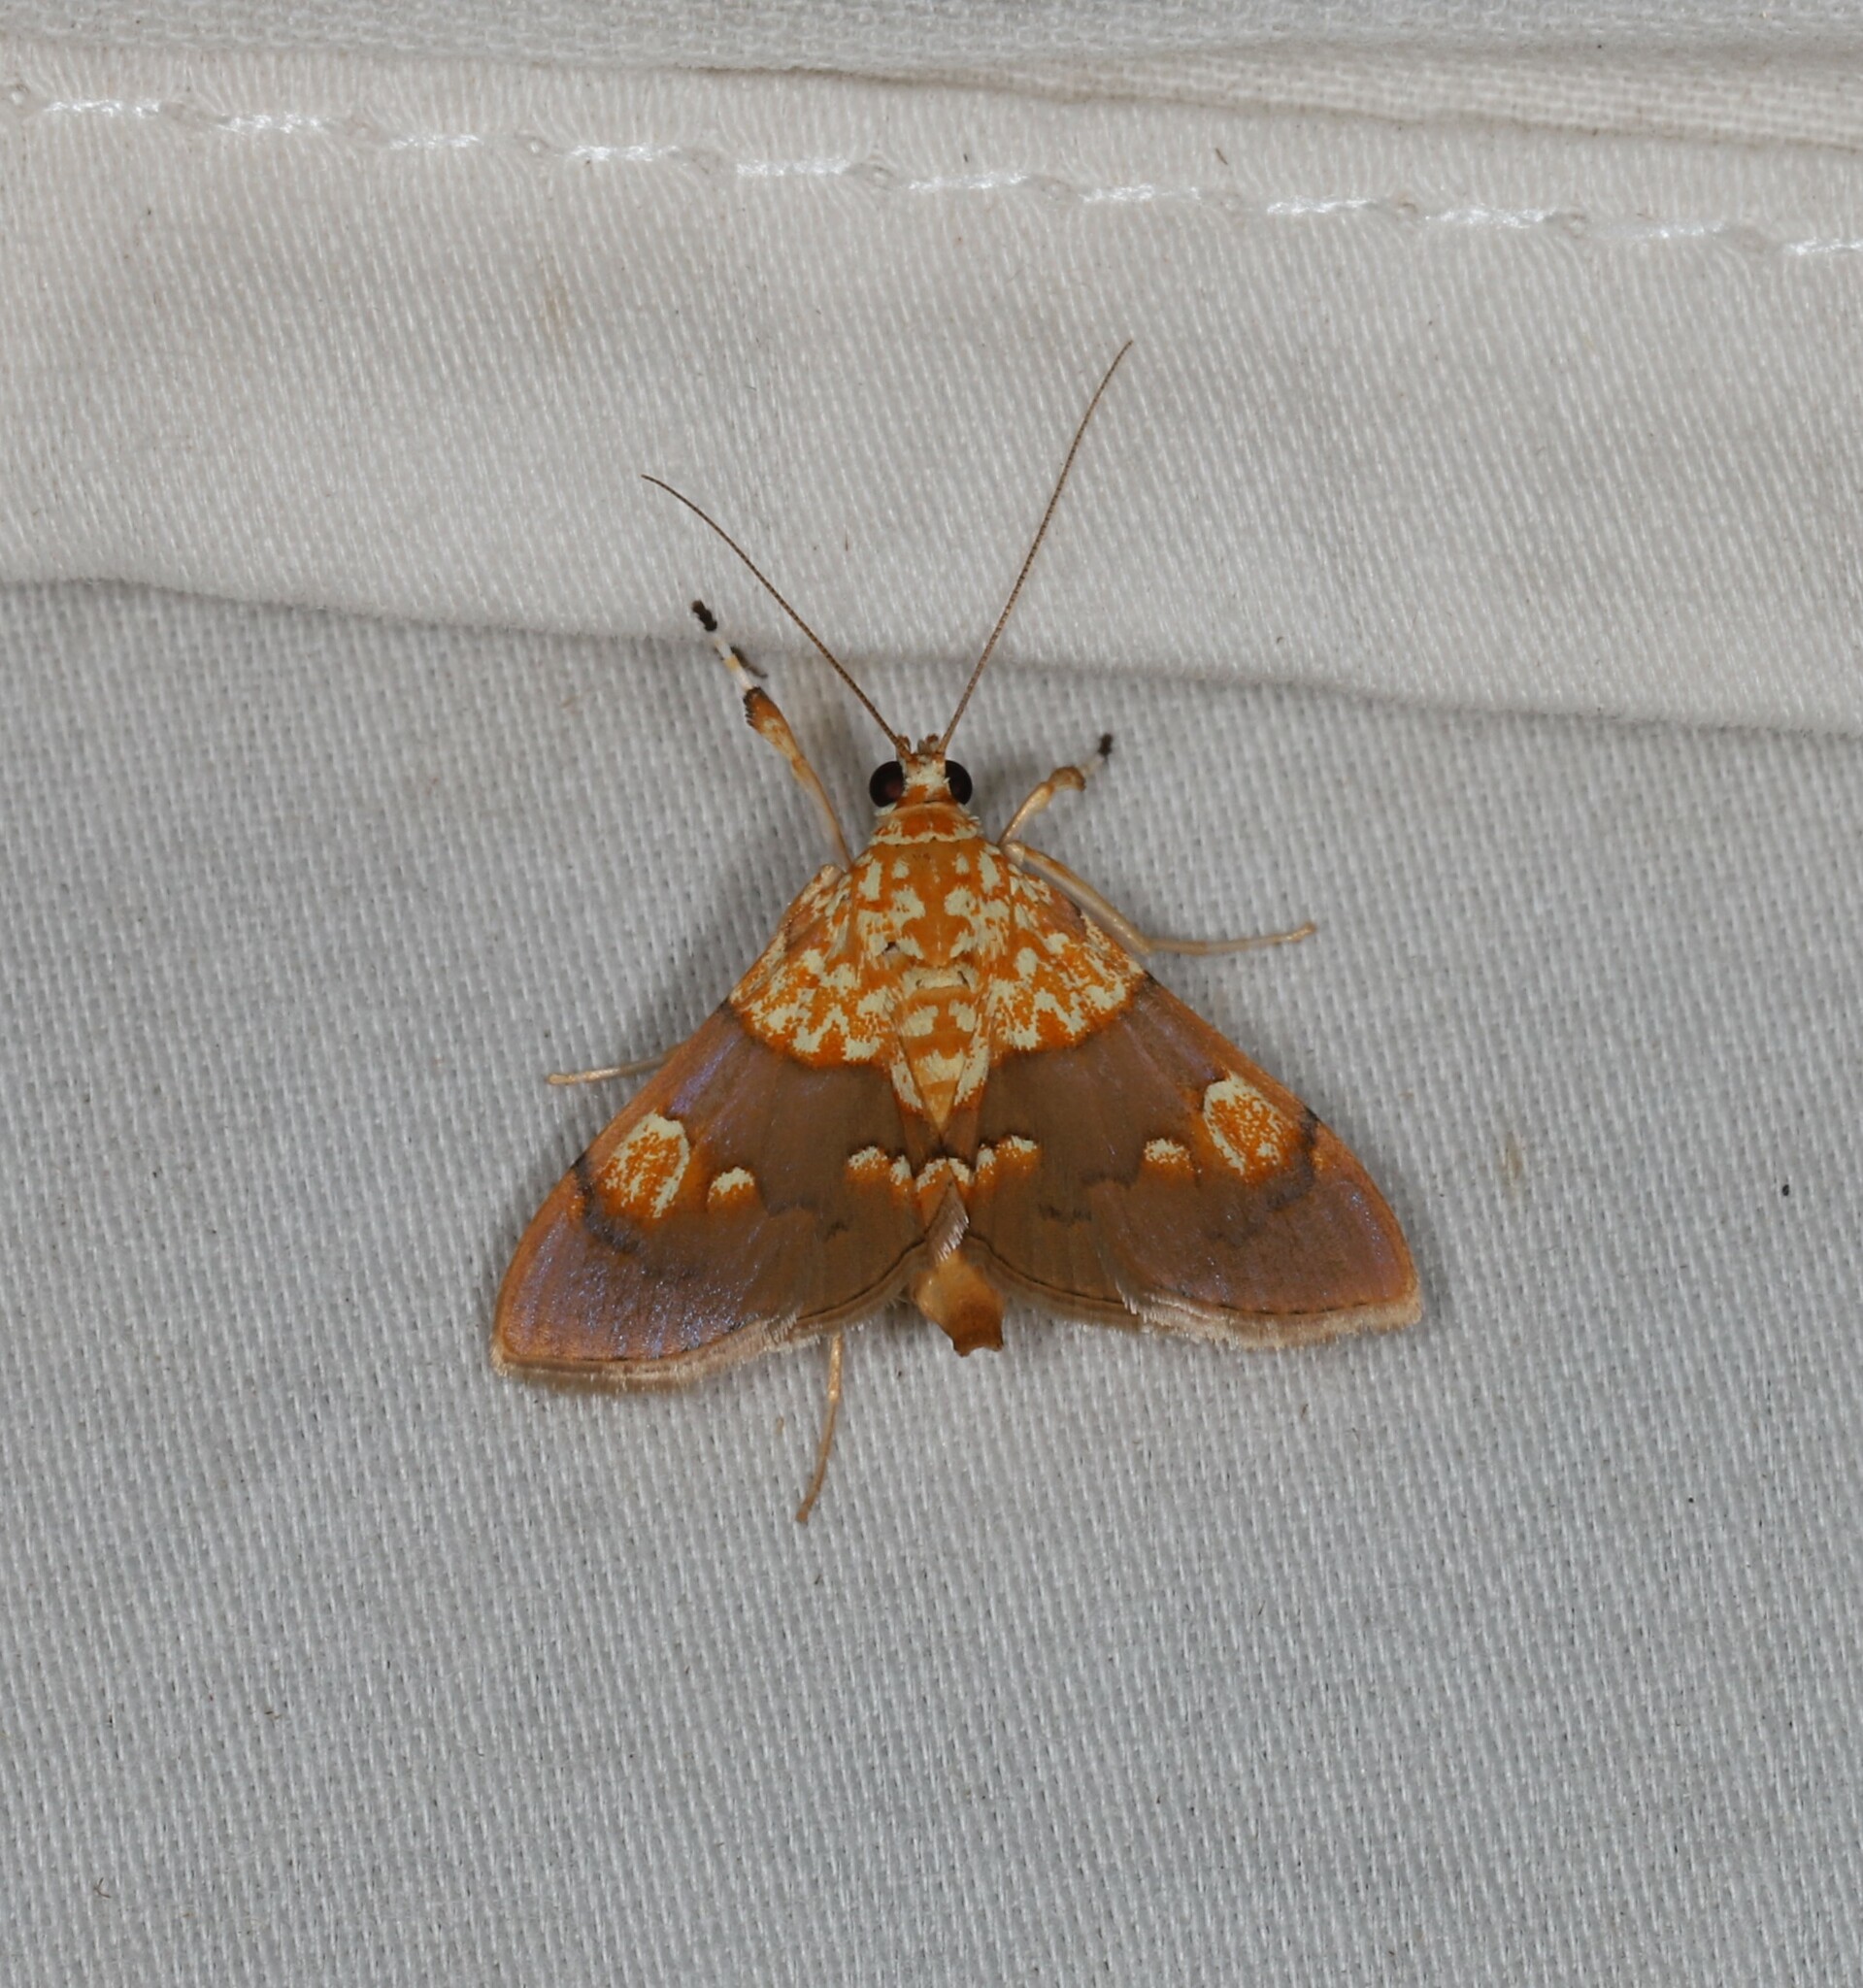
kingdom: Animalia
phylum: Arthropoda
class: Insecta
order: Lepidoptera
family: Crambidae
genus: Agrotera
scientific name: Agrotera glycyphanes
